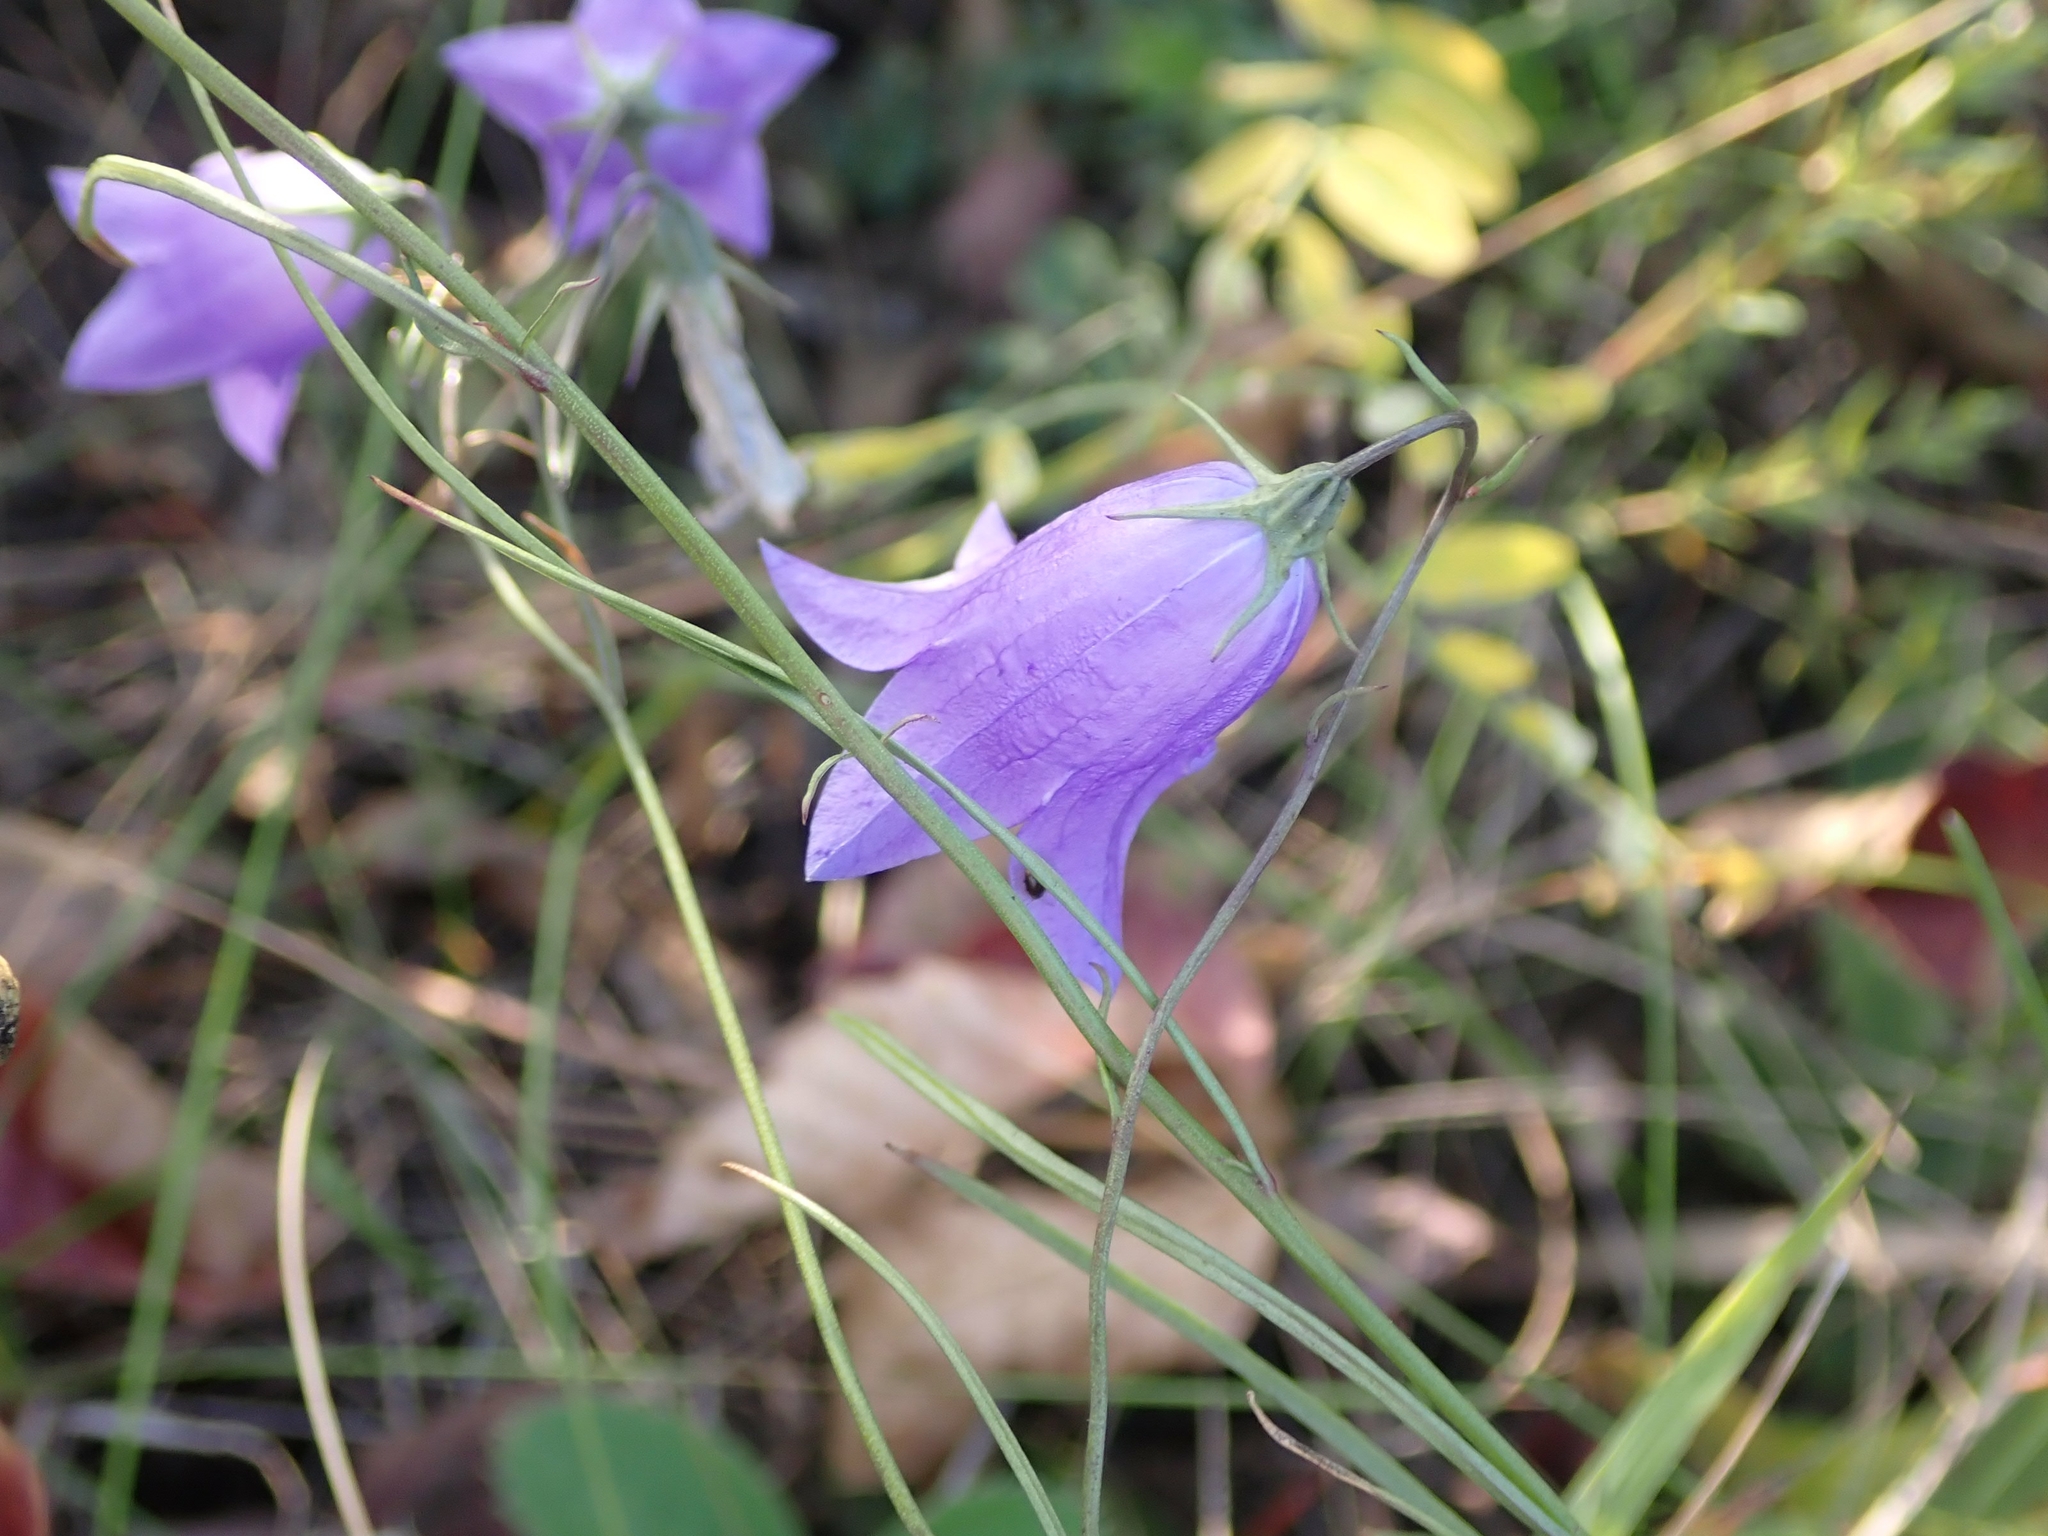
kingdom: Plantae
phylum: Tracheophyta
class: Magnoliopsida
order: Asterales
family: Campanulaceae
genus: Campanula
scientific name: Campanula petiolata
